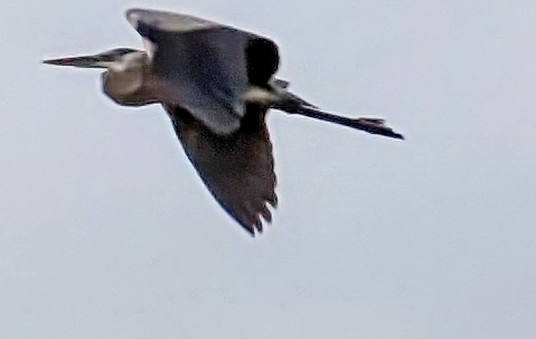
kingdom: Animalia
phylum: Chordata
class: Aves
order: Pelecaniformes
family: Ardeidae
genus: Ardea
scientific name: Ardea herodias
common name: Great blue heron
